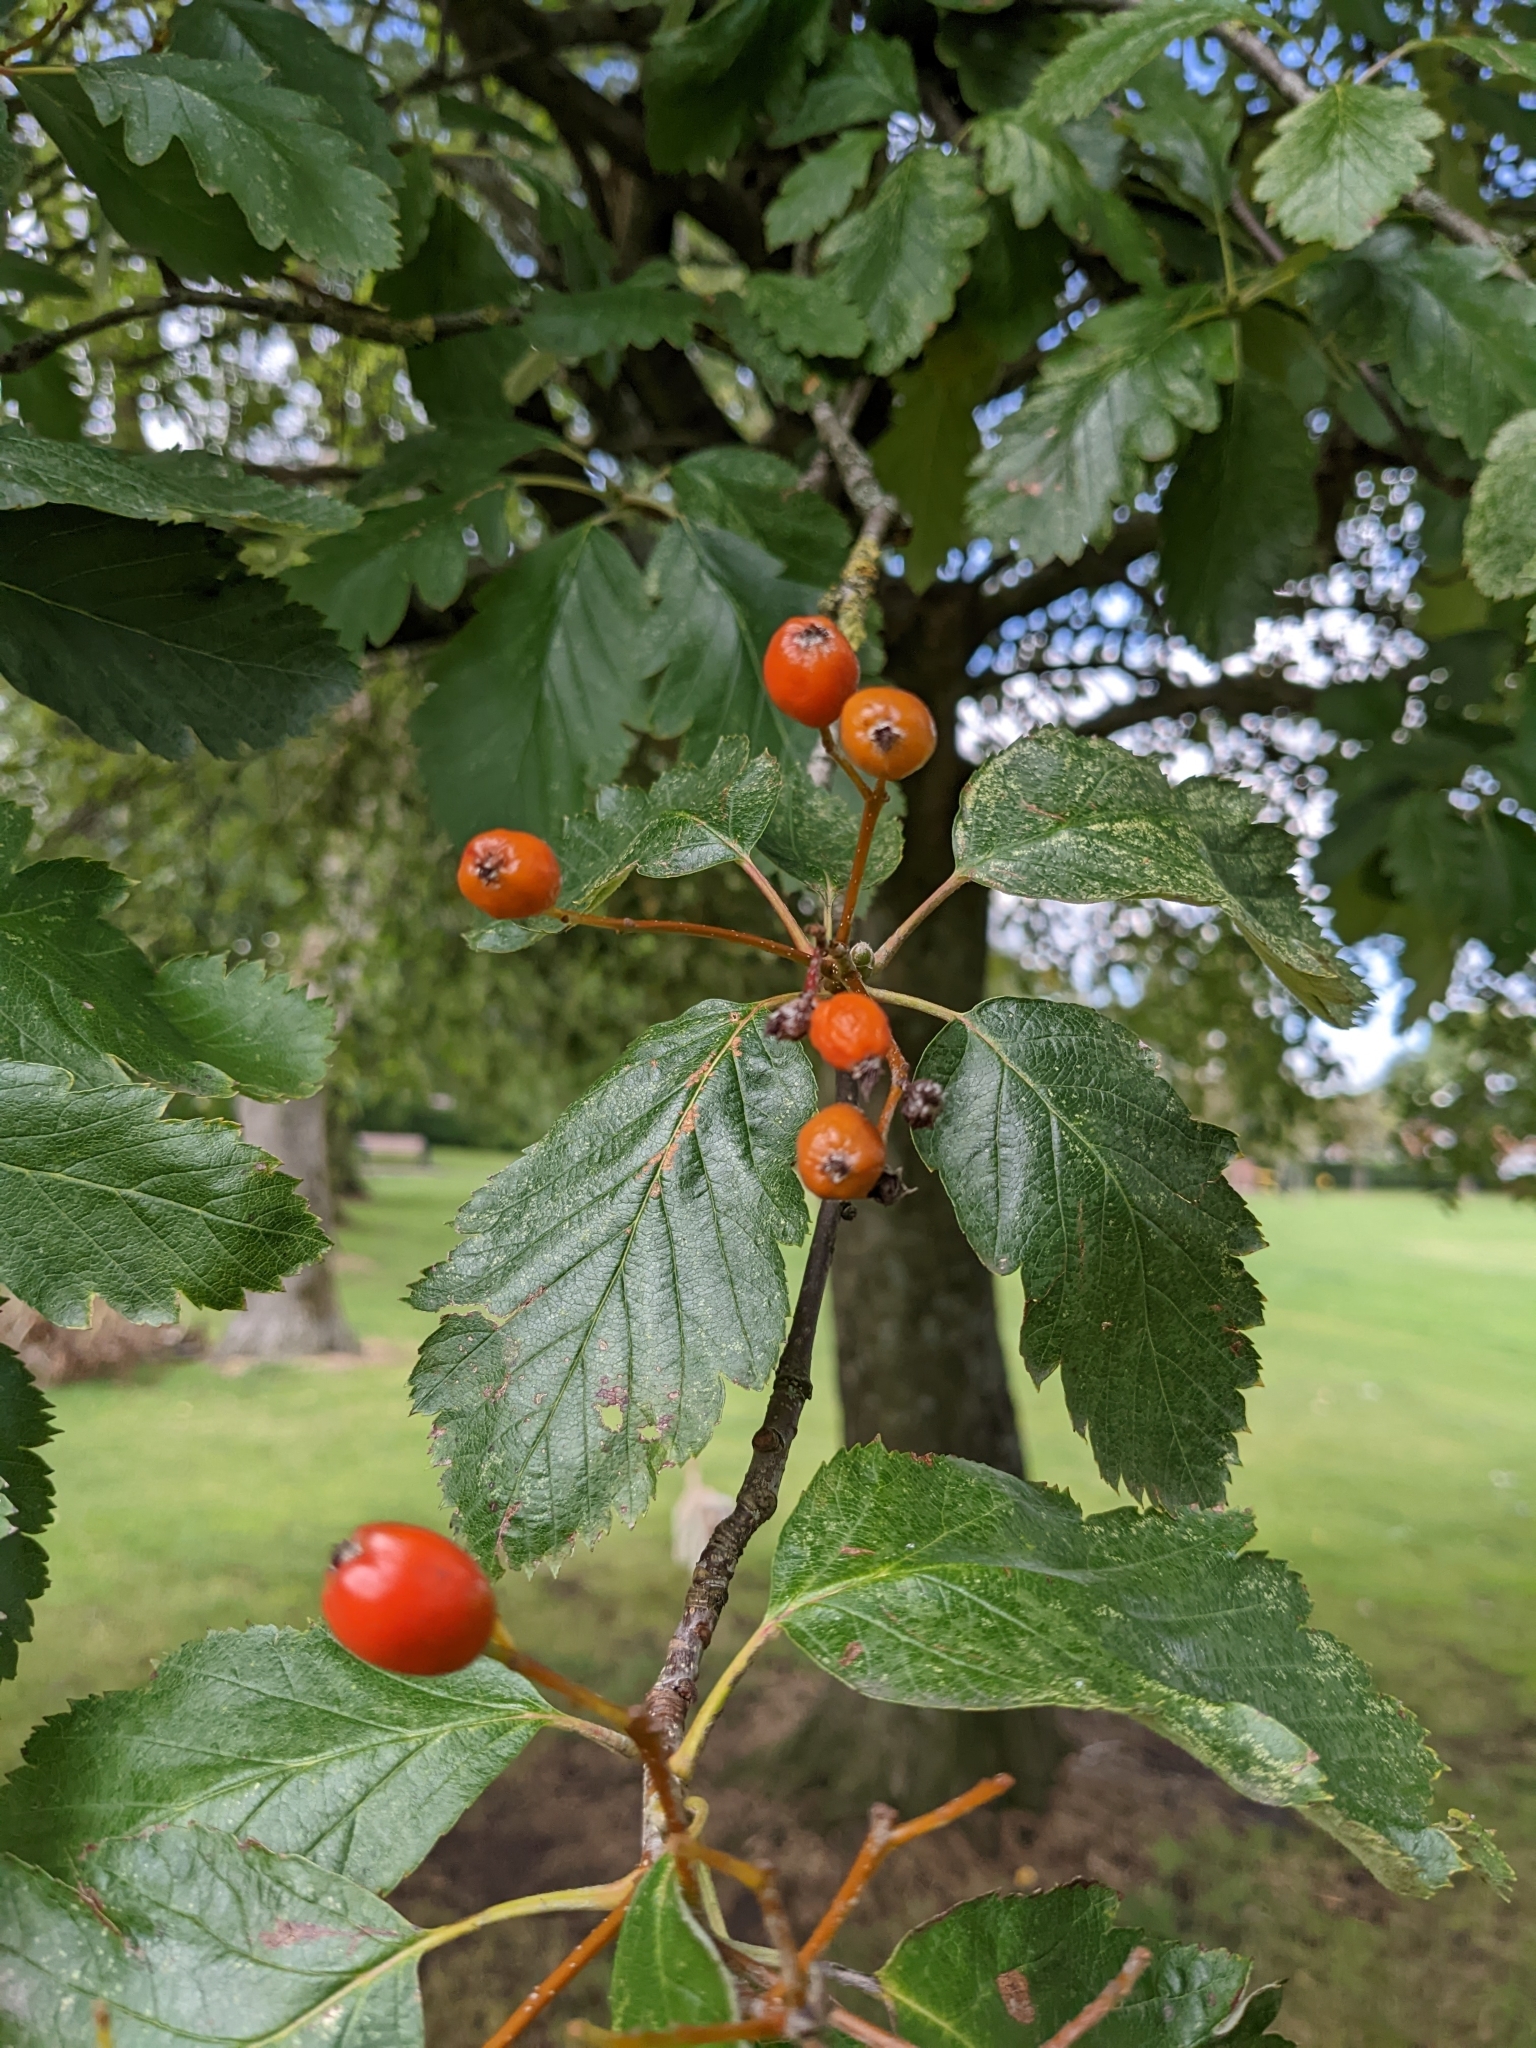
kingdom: Plantae
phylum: Tracheophyta
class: Magnoliopsida
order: Rosales
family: Rosaceae
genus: Scandosorbus
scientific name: Scandosorbus intermedia
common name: Swedish whitebeam
